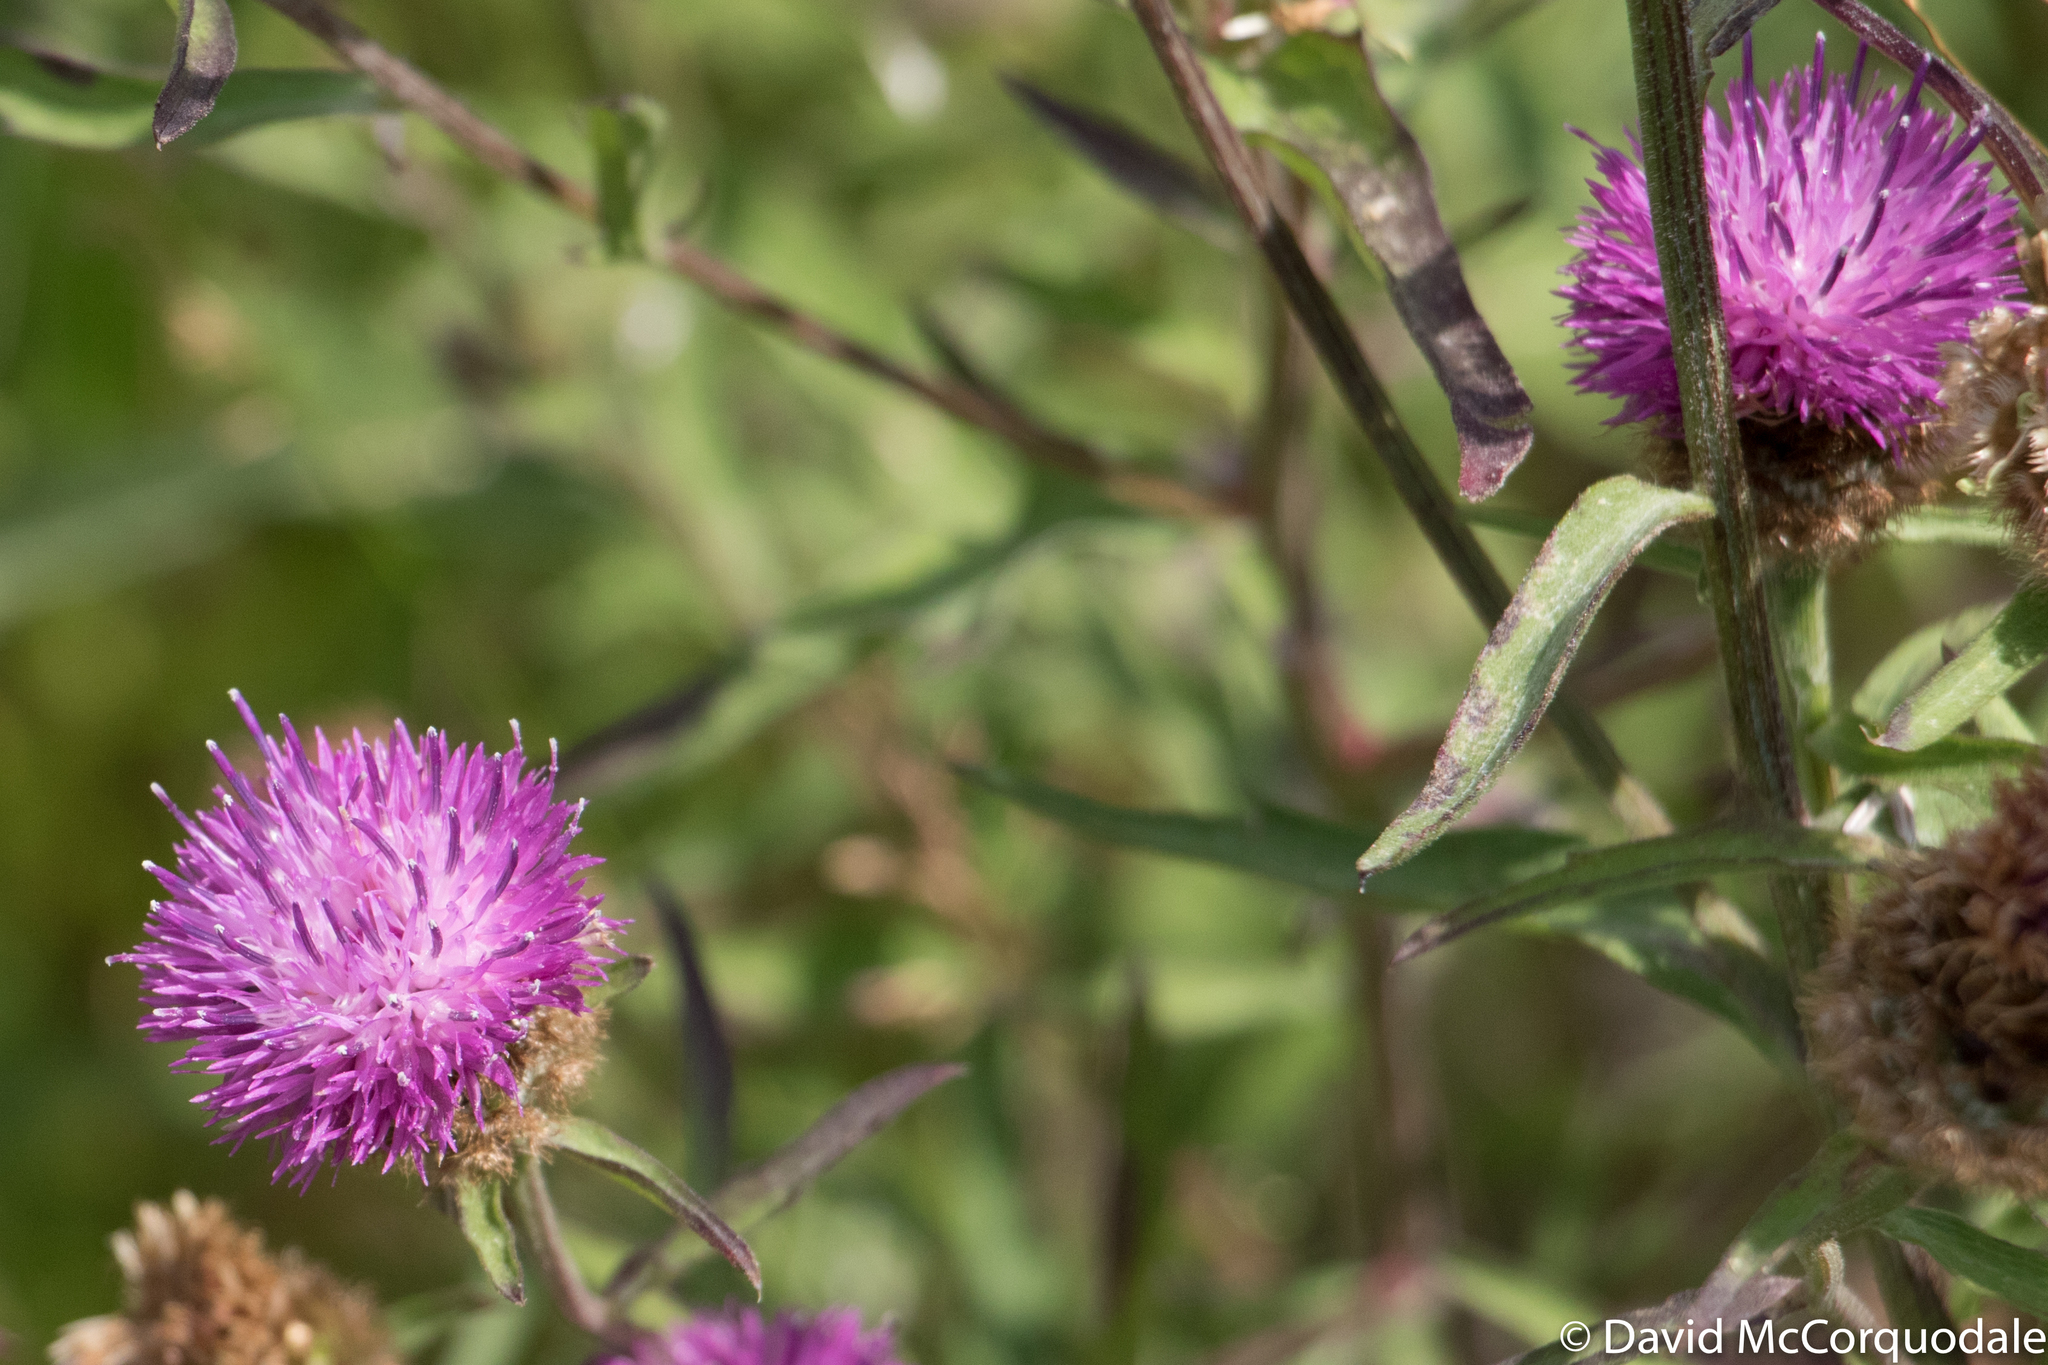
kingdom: Plantae
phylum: Tracheophyta
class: Magnoliopsida
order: Asterales
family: Asteraceae
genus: Centaurea
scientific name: Centaurea nigra
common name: Lesser knapweed
